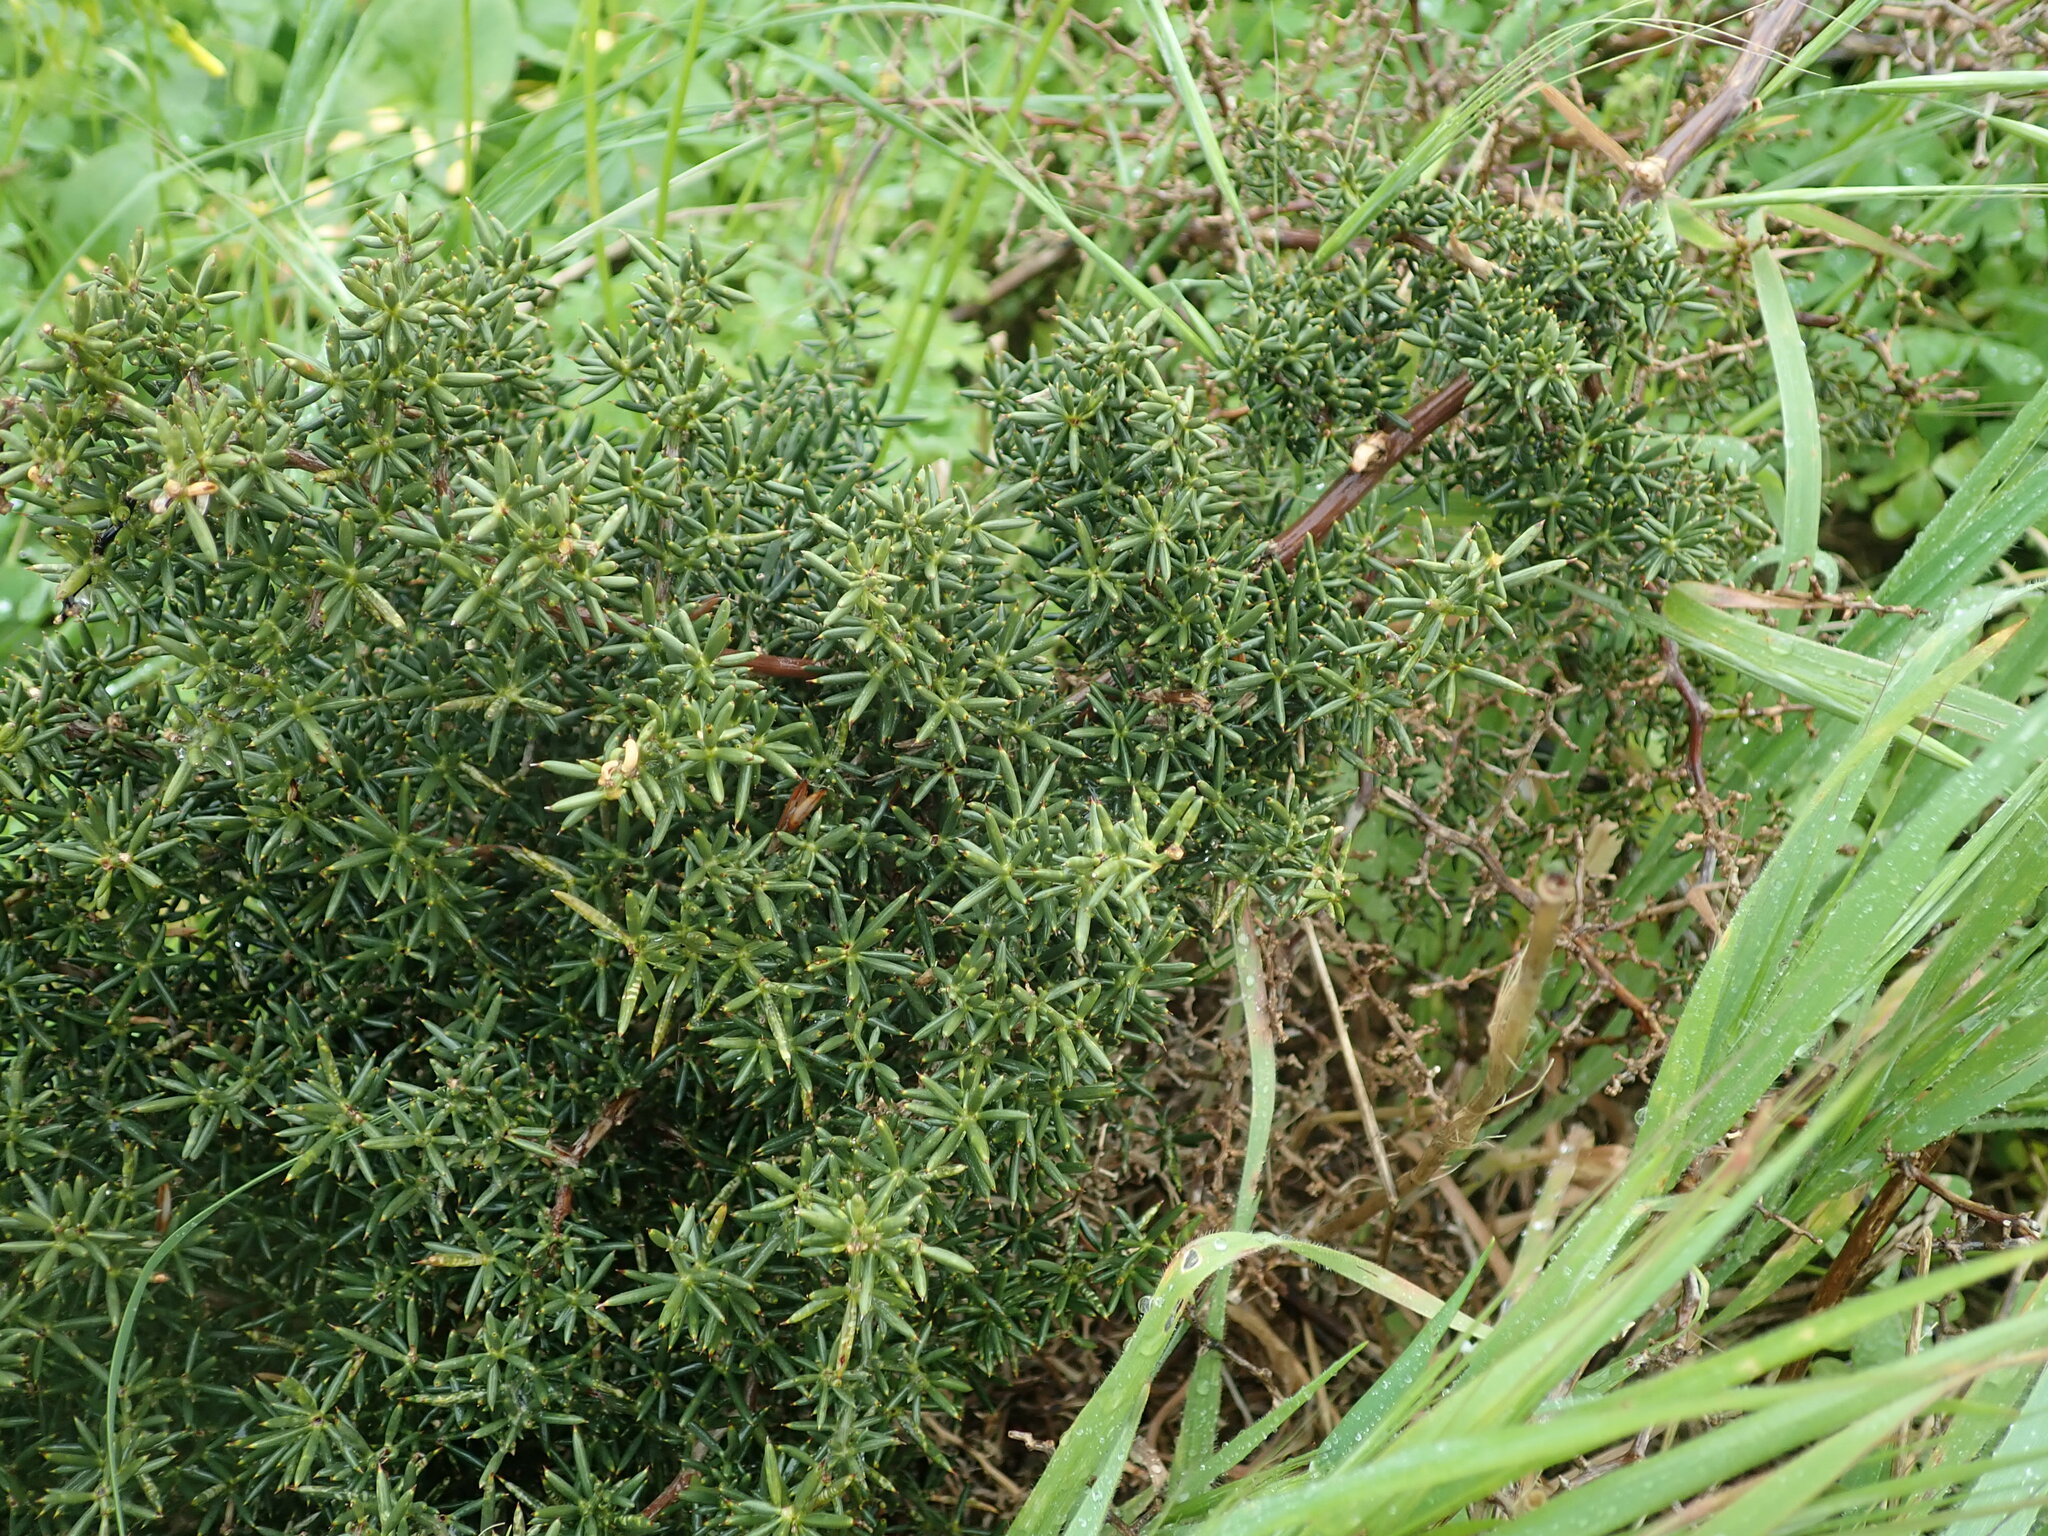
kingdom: Plantae
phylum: Tracheophyta
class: Liliopsida
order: Asparagales
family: Asparagaceae
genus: Asparagus
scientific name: Asparagus aphyllus
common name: Mediterranean asparagus
